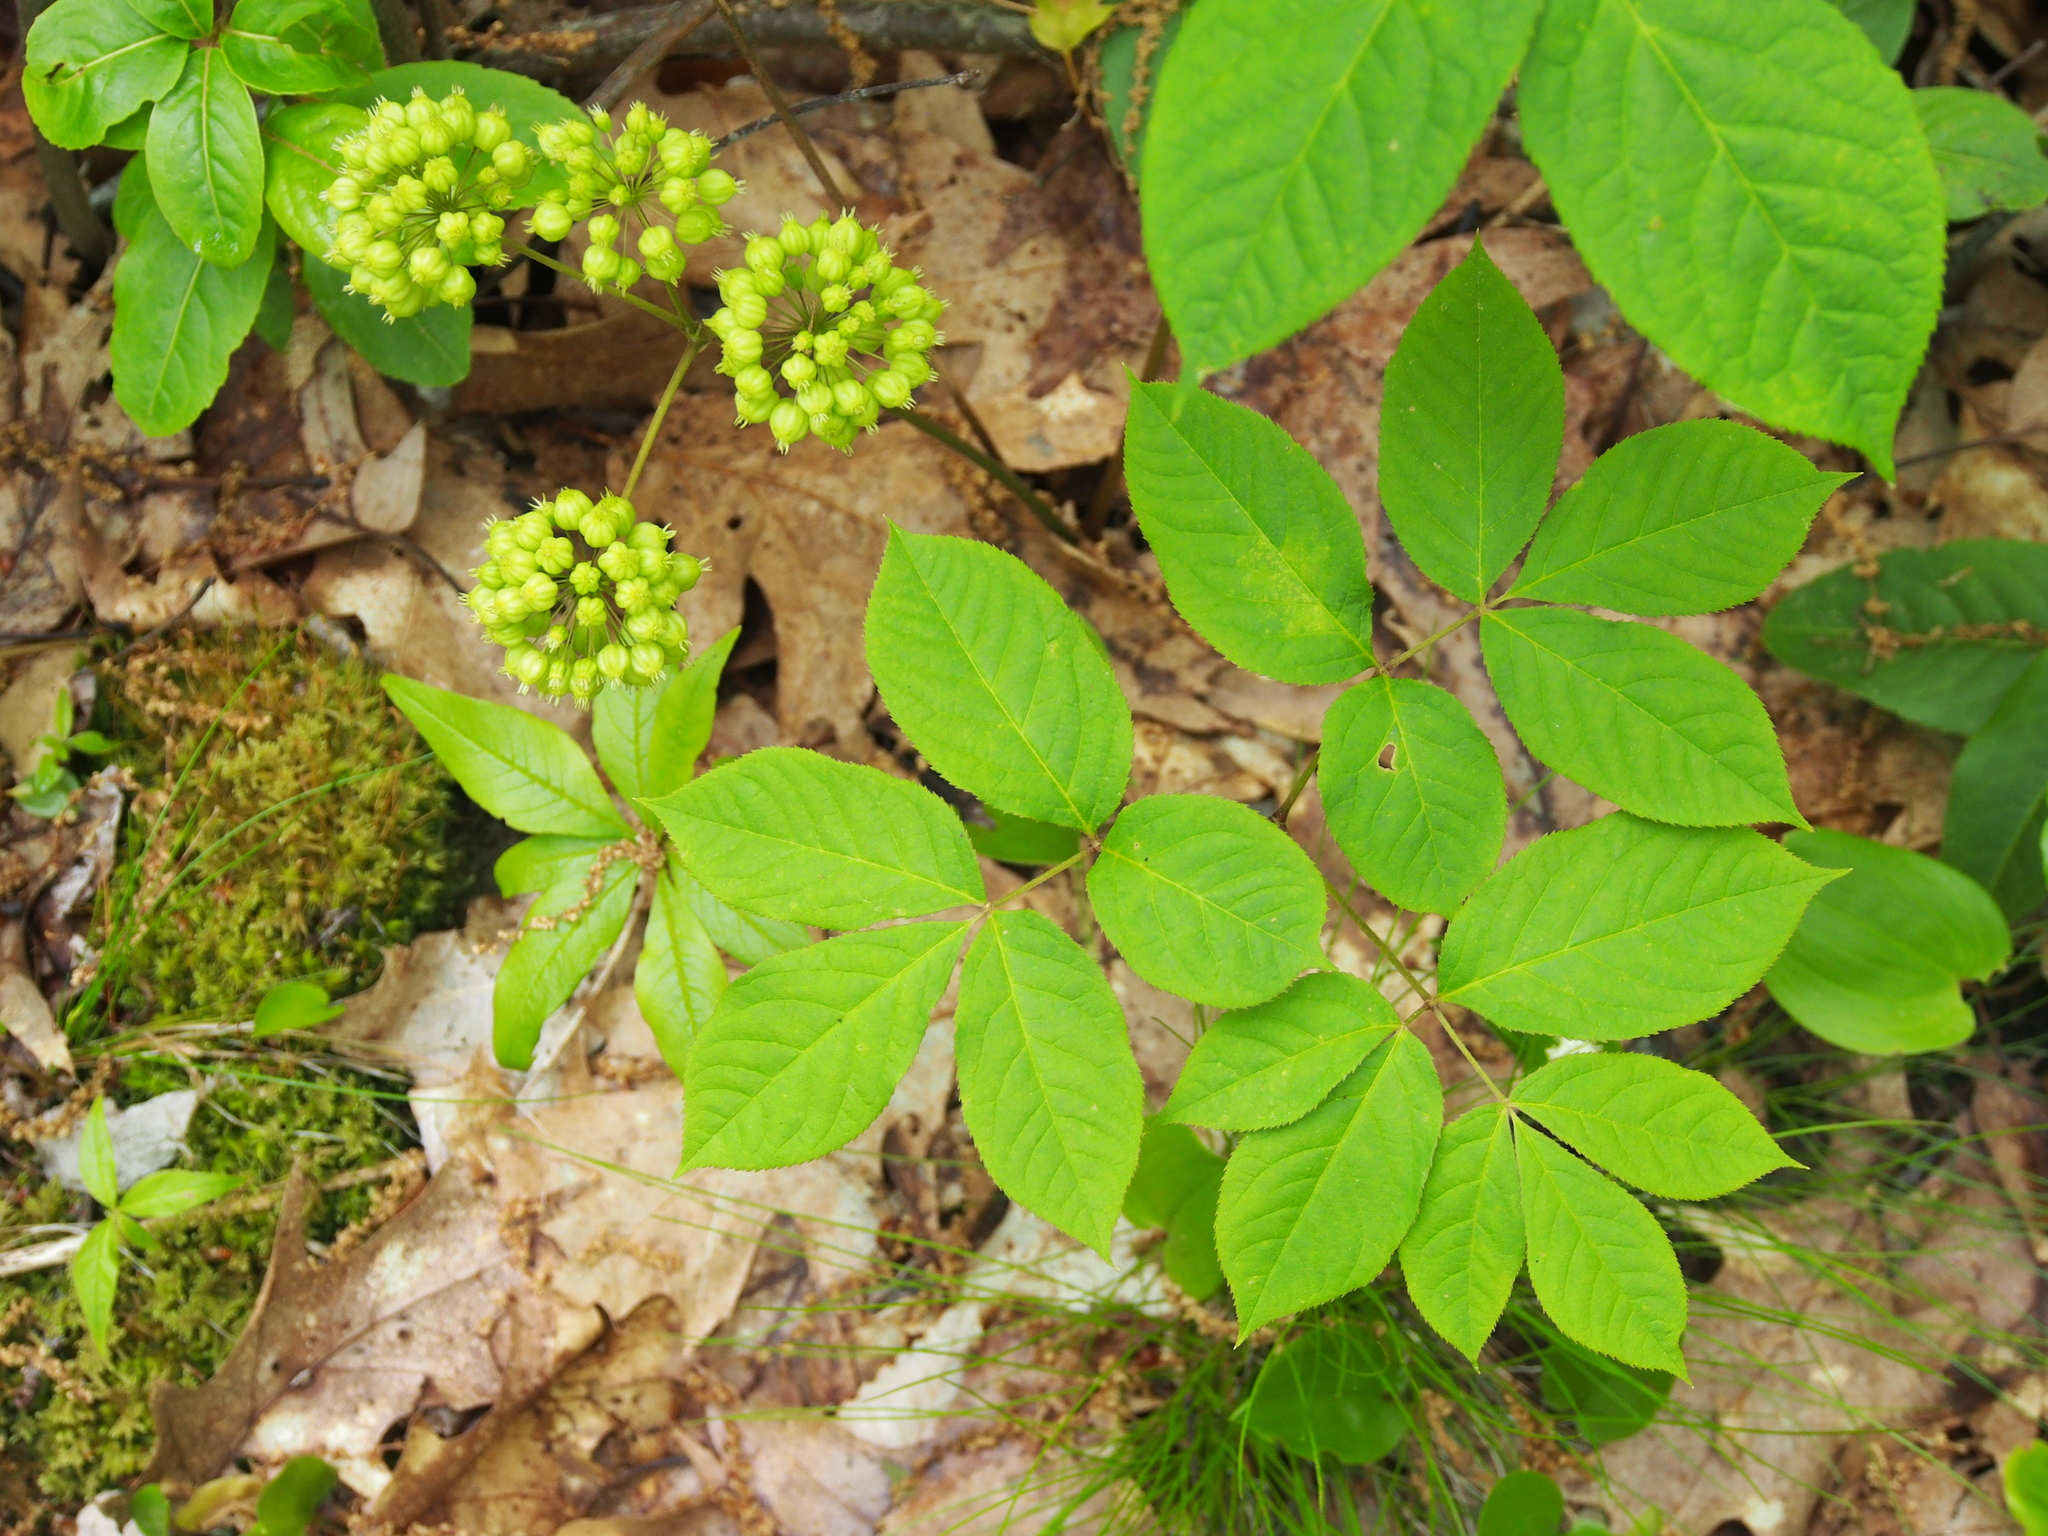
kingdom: Plantae
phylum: Tracheophyta
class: Magnoliopsida
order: Apiales
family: Araliaceae
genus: Aralia
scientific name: Aralia nudicaulis
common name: Wild sarsaparilla
